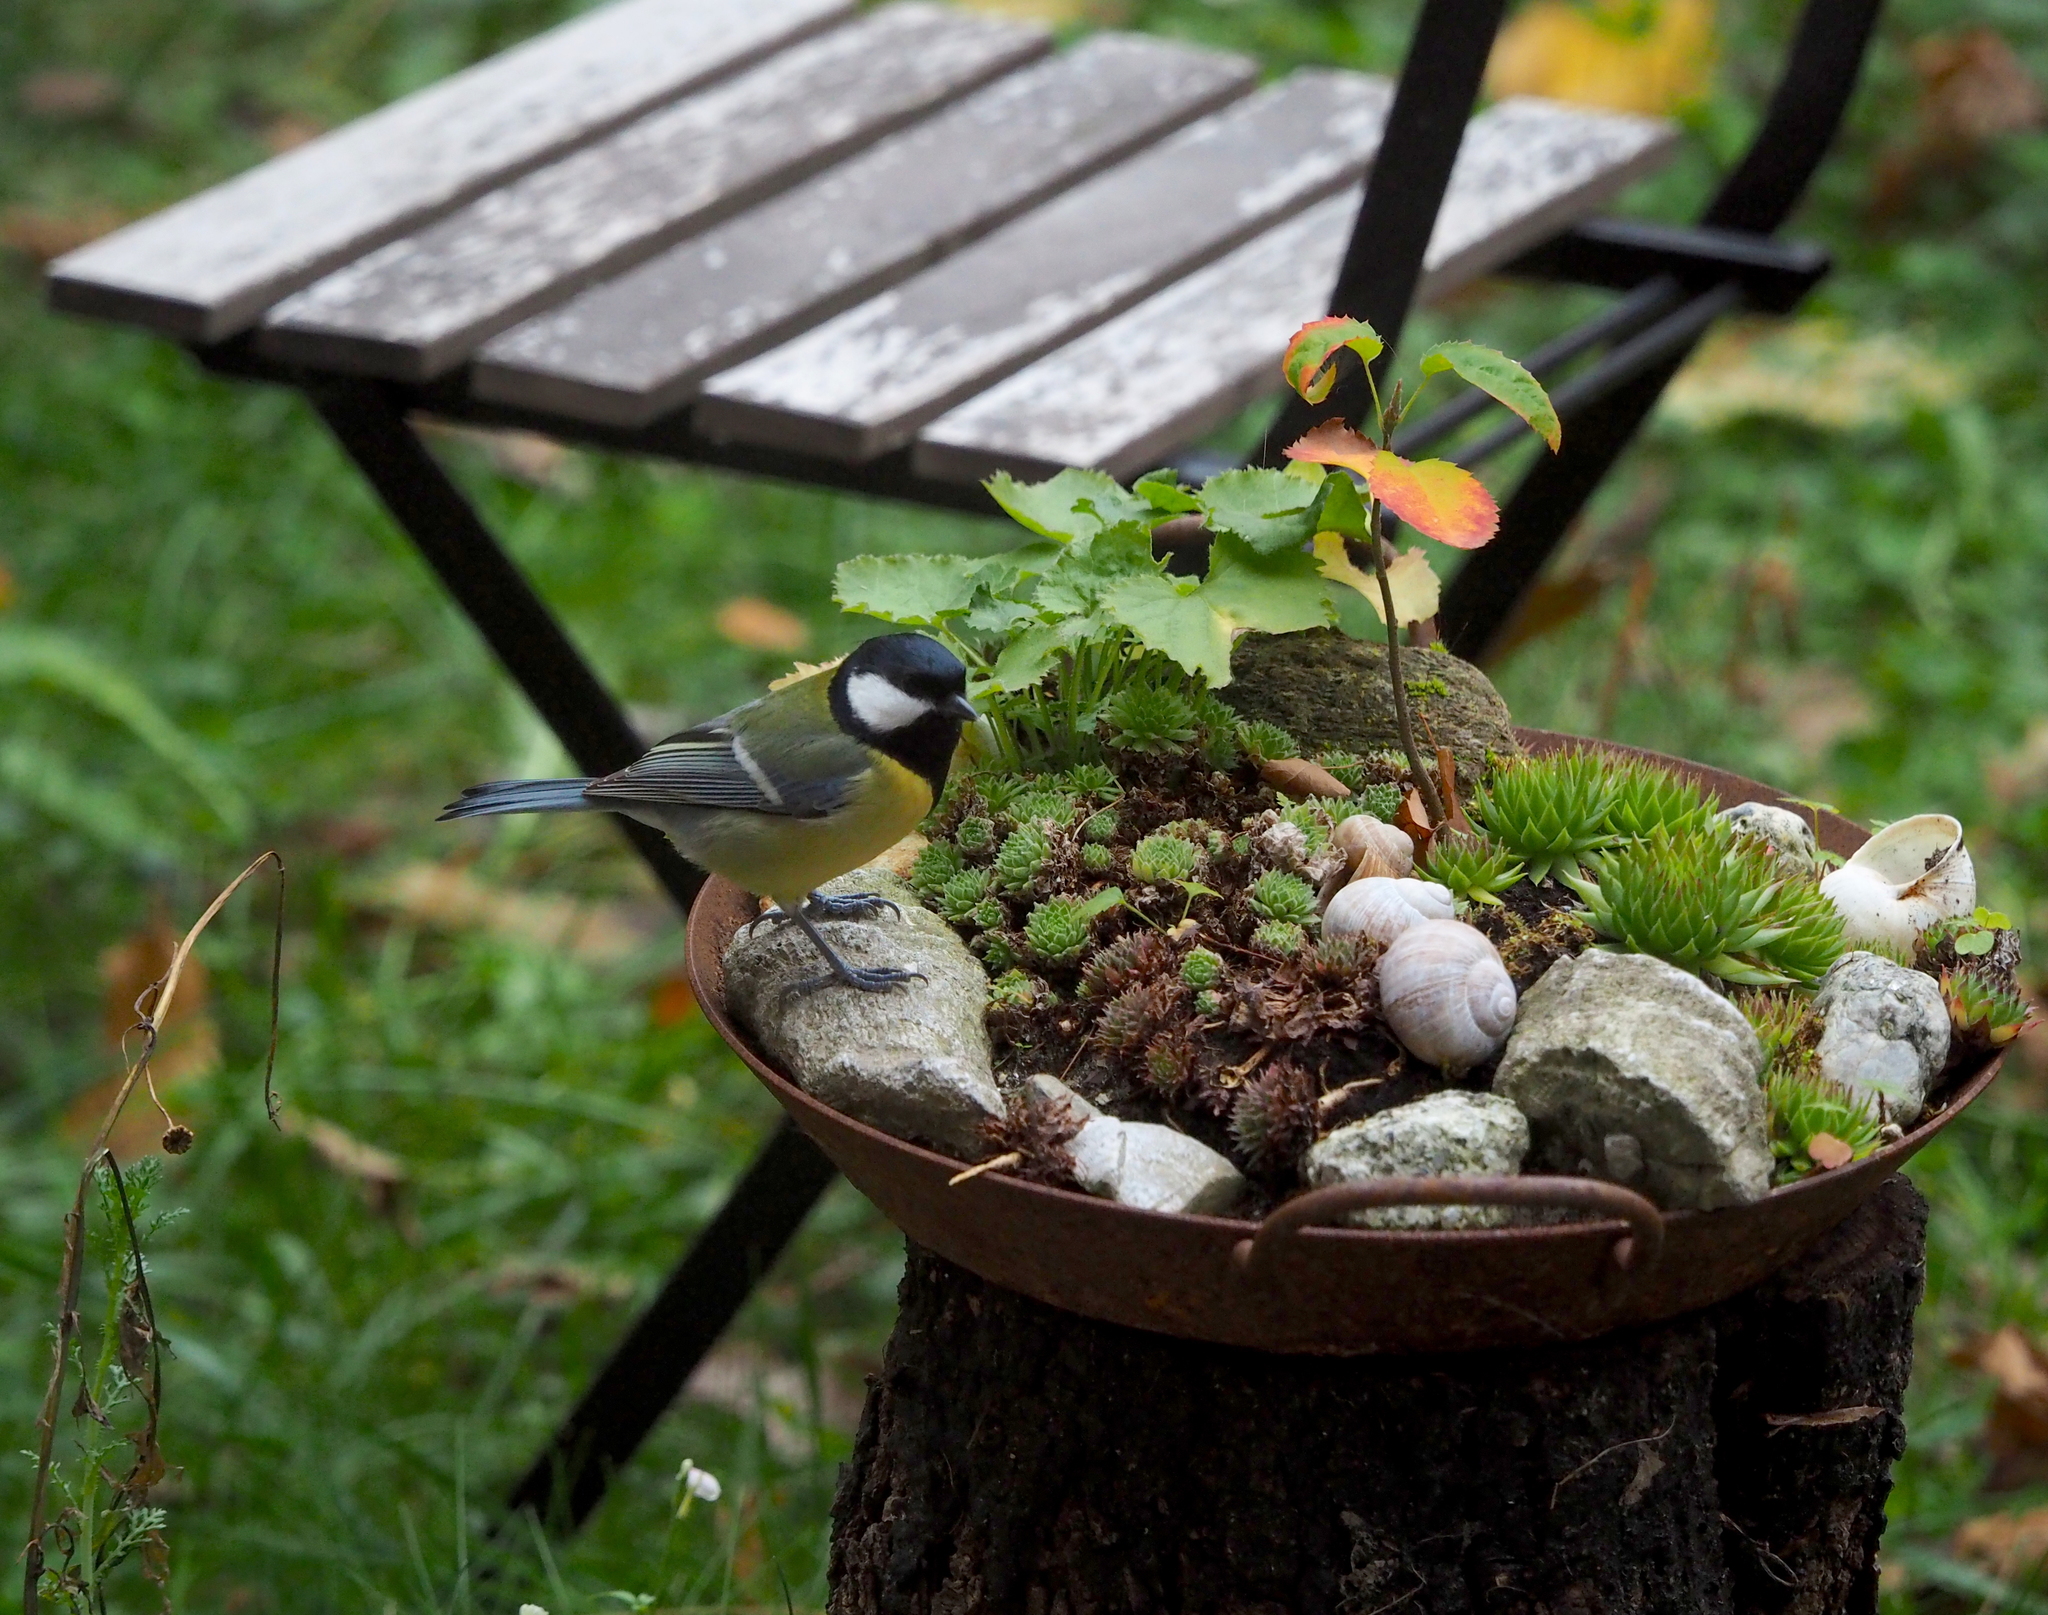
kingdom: Animalia
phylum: Chordata
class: Aves
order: Passeriformes
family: Paridae
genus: Parus
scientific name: Parus major
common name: Great tit
